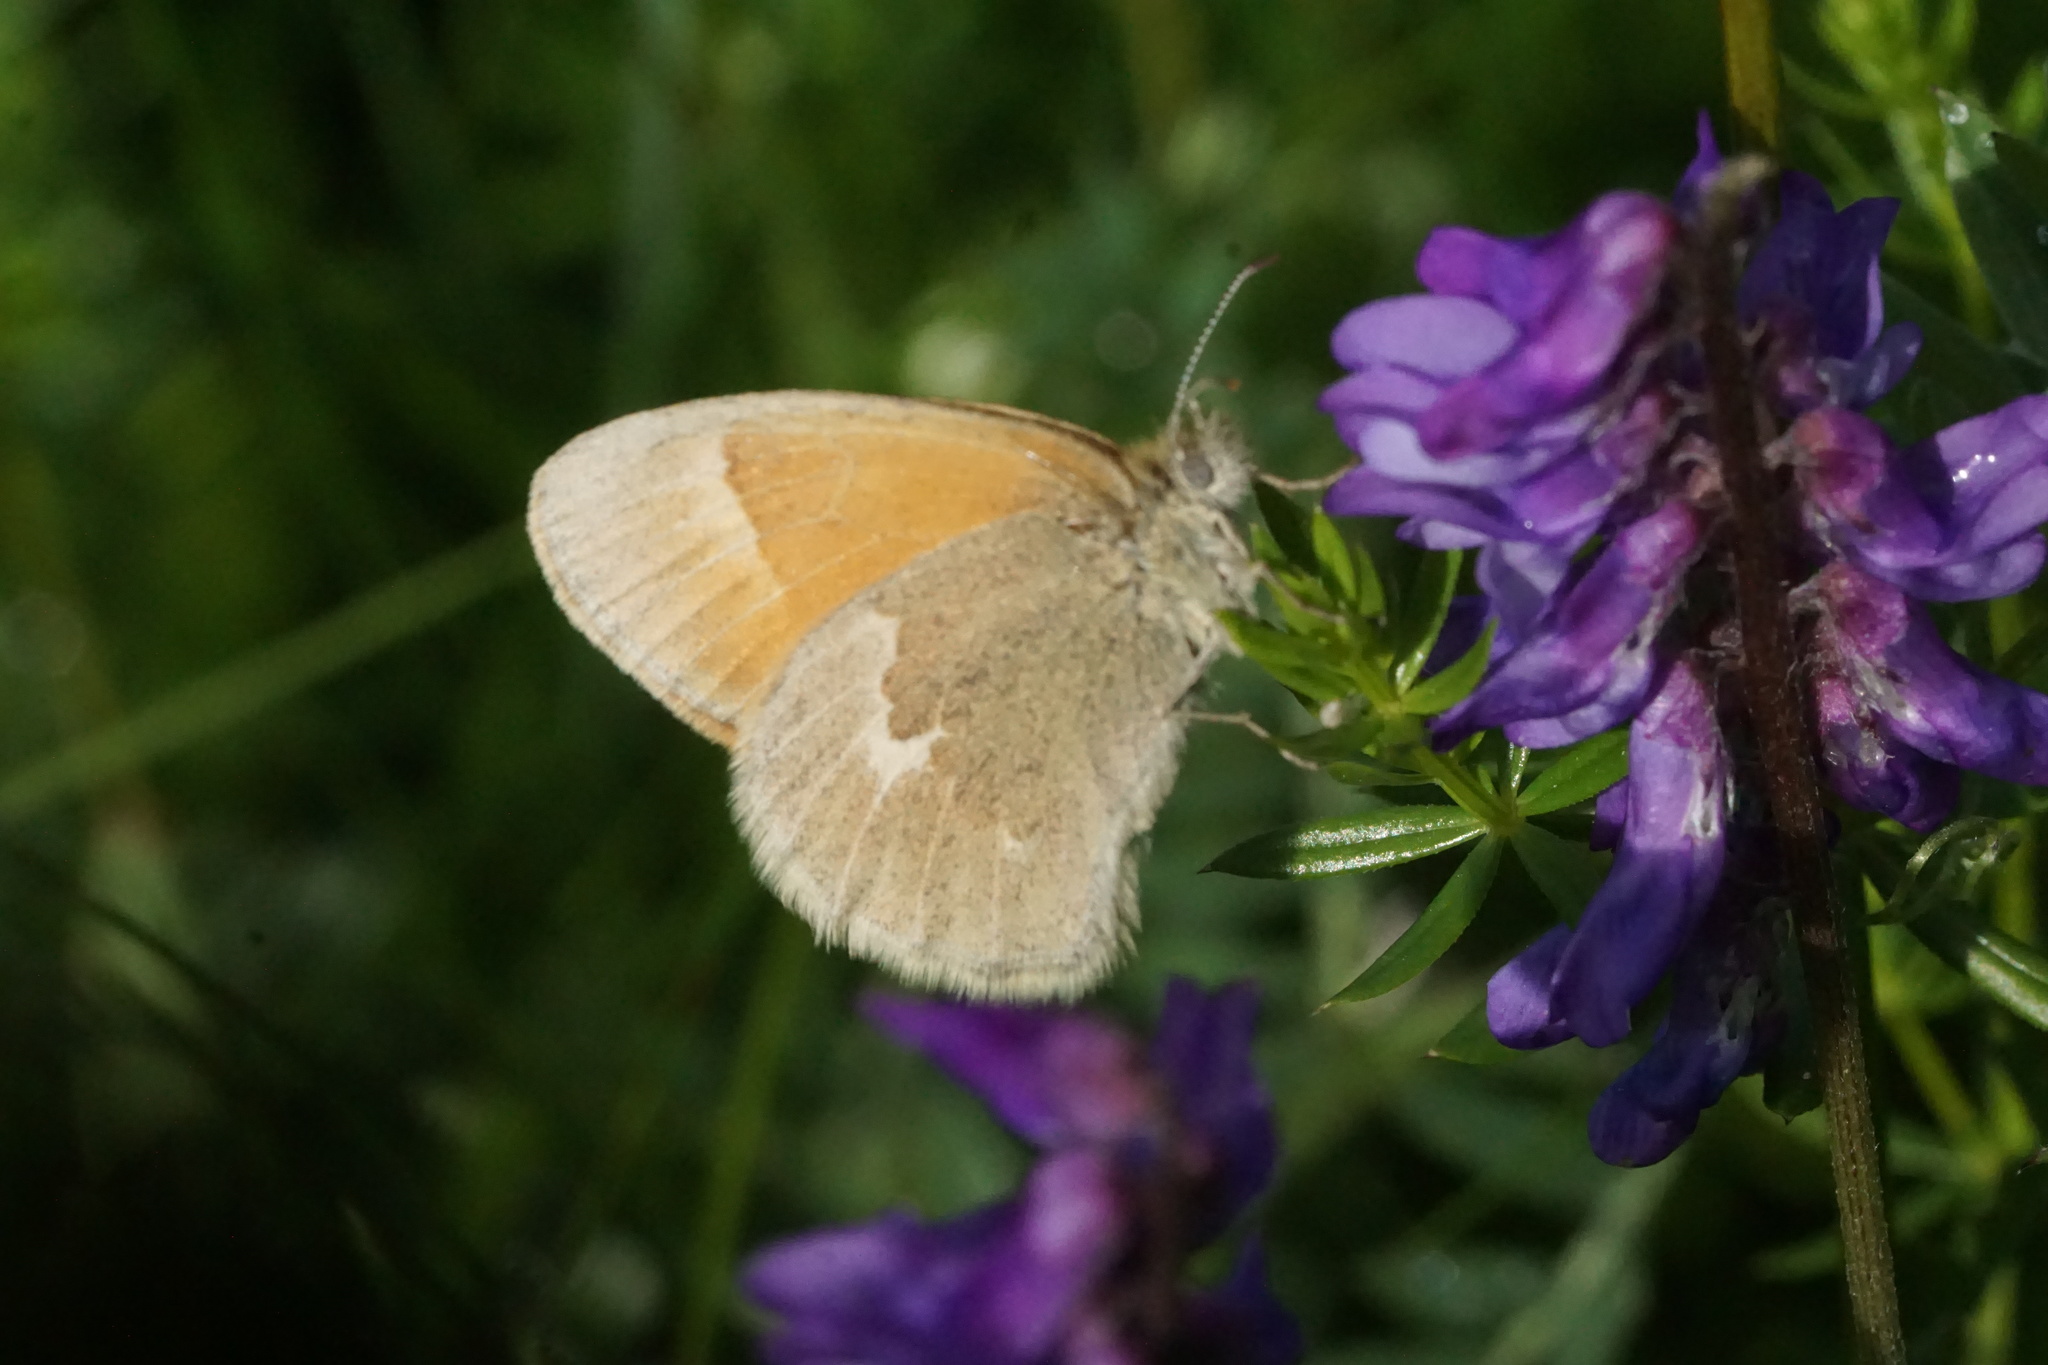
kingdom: Animalia
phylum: Arthropoda
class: Insecta
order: Lepidoptera
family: Nymphalidae
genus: Coenonympha
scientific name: Coenonympha california
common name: Common ringlet
